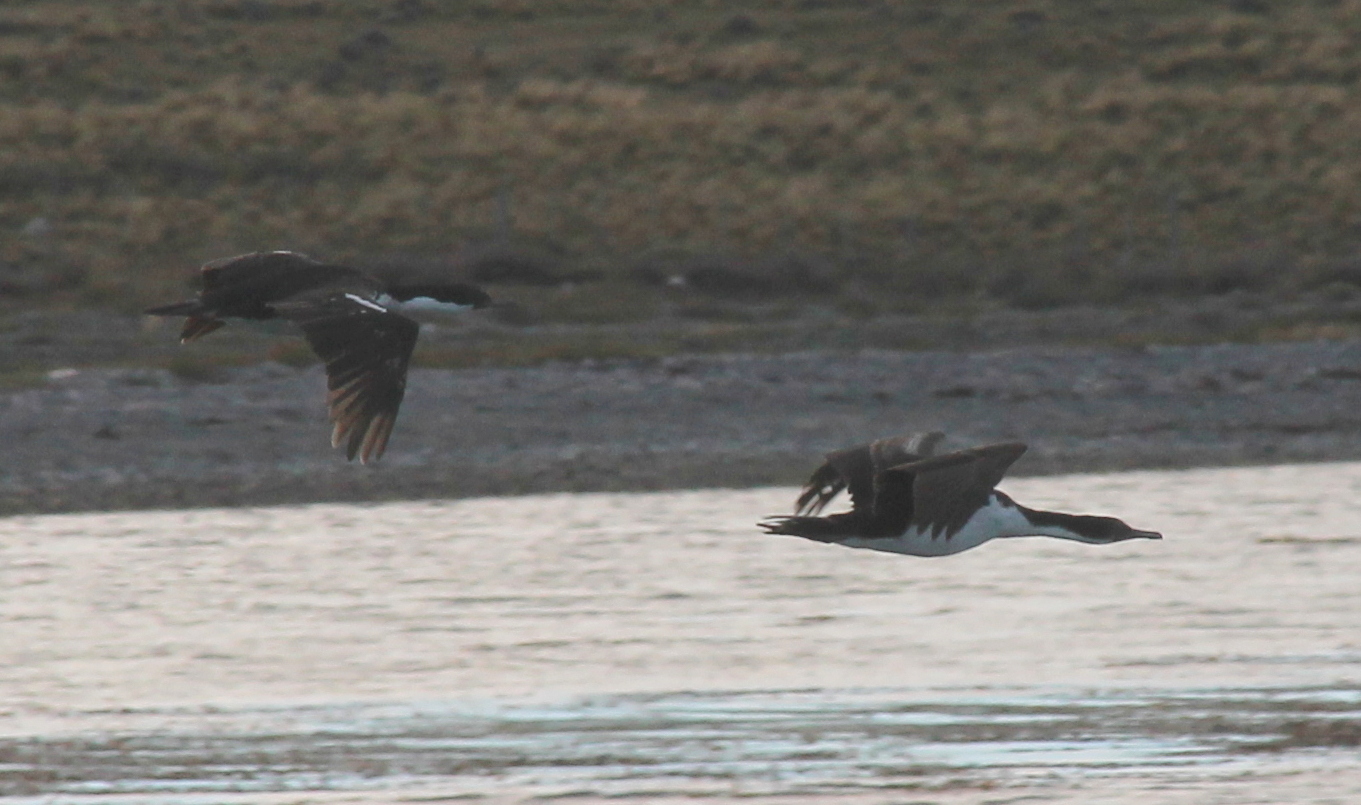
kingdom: Animalia
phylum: Chordata
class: Aves
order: Suliformes
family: Phalacrocoracidae
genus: Leucocarbo
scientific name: Leucocarbo atriceps
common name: Imperial shag
